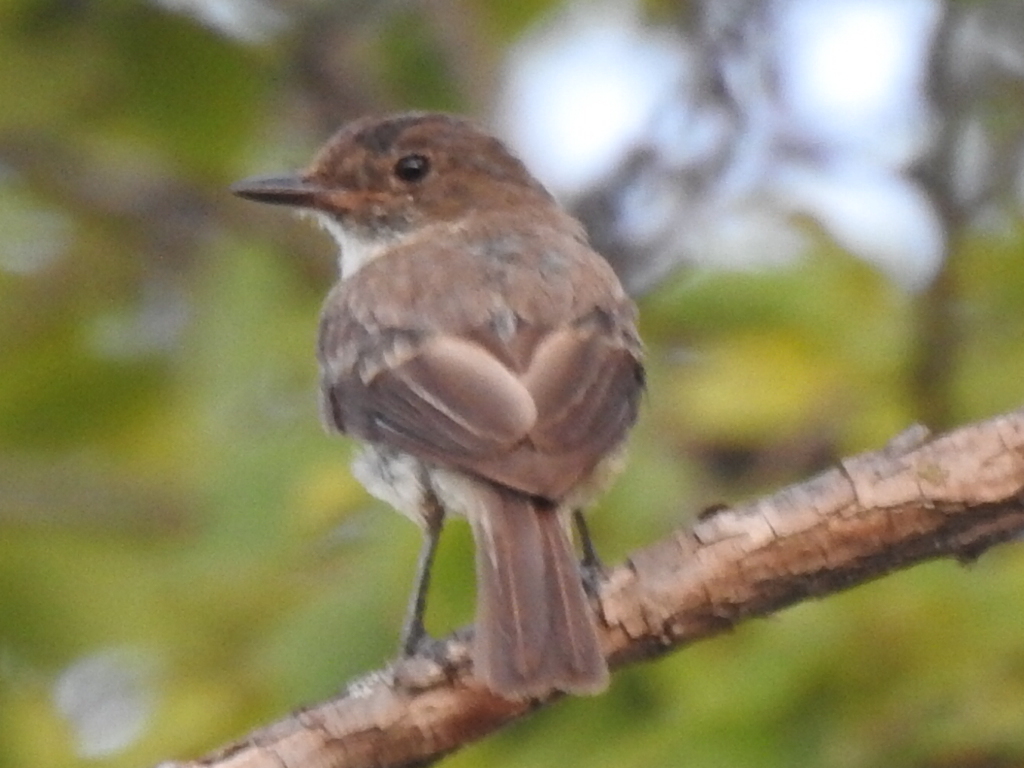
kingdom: Animalia
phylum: Chordata
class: Aves
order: Passeriformes
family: Tyrannidae
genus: Sayornis
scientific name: Sayornis phoebe
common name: Eastern phoebe
